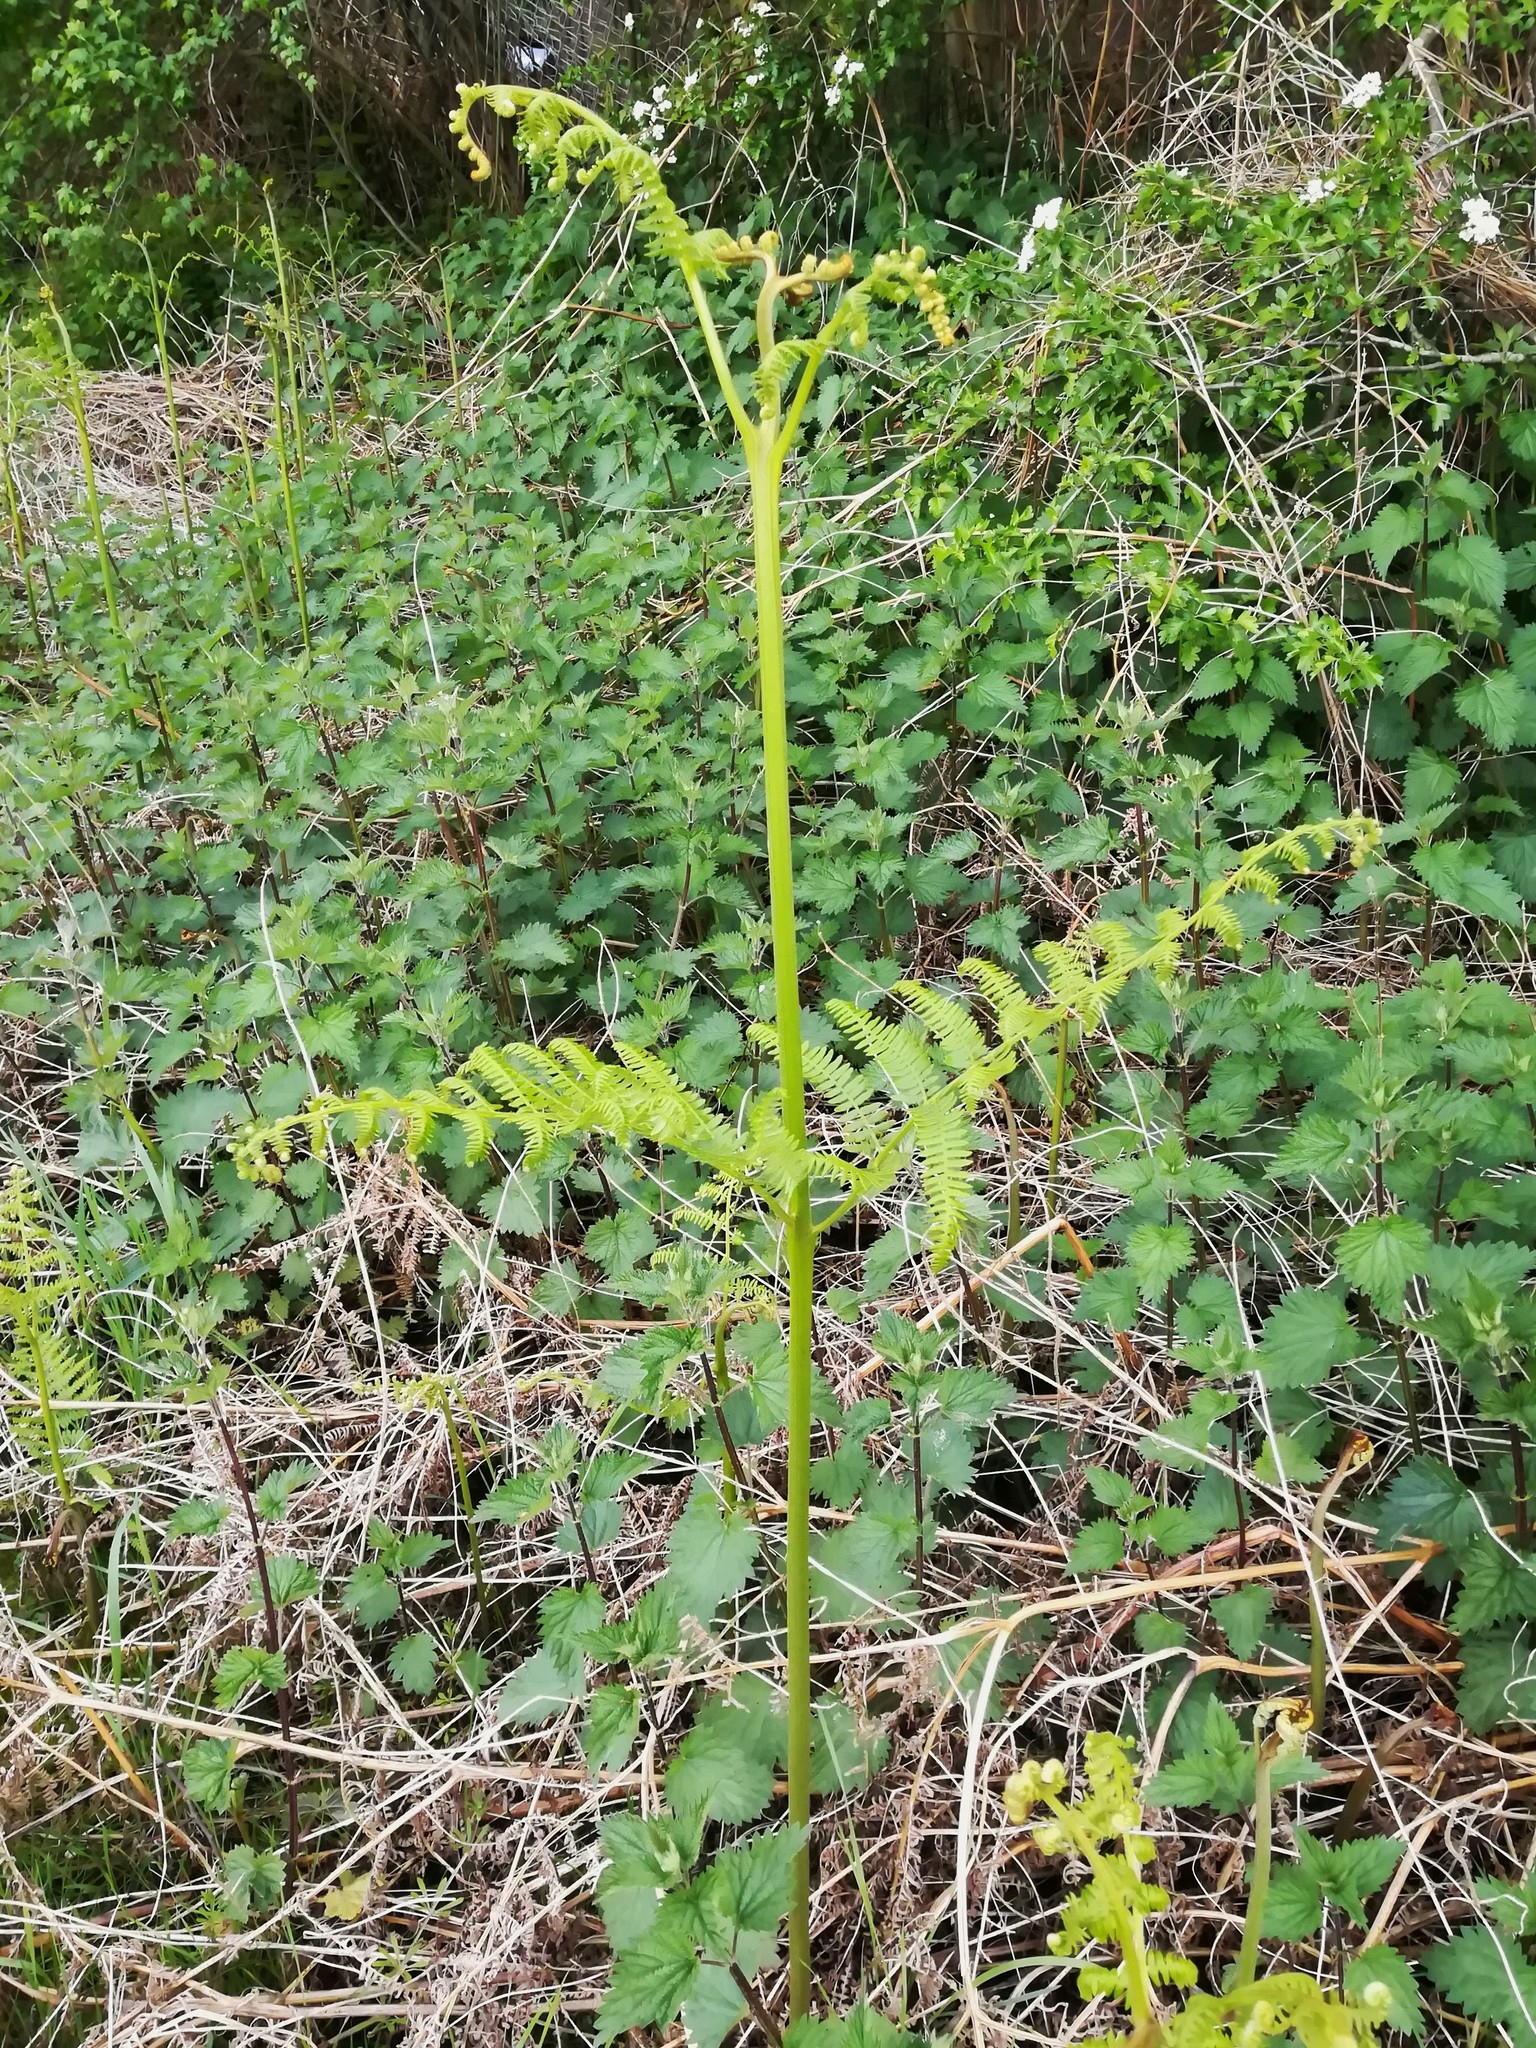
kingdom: Plantae
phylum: Tracheophyta
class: Polypodiopsida
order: Polypodiales
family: Dennstaedtiaceae
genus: Pteridium
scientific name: Pteridium aquilinum
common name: Bracken
